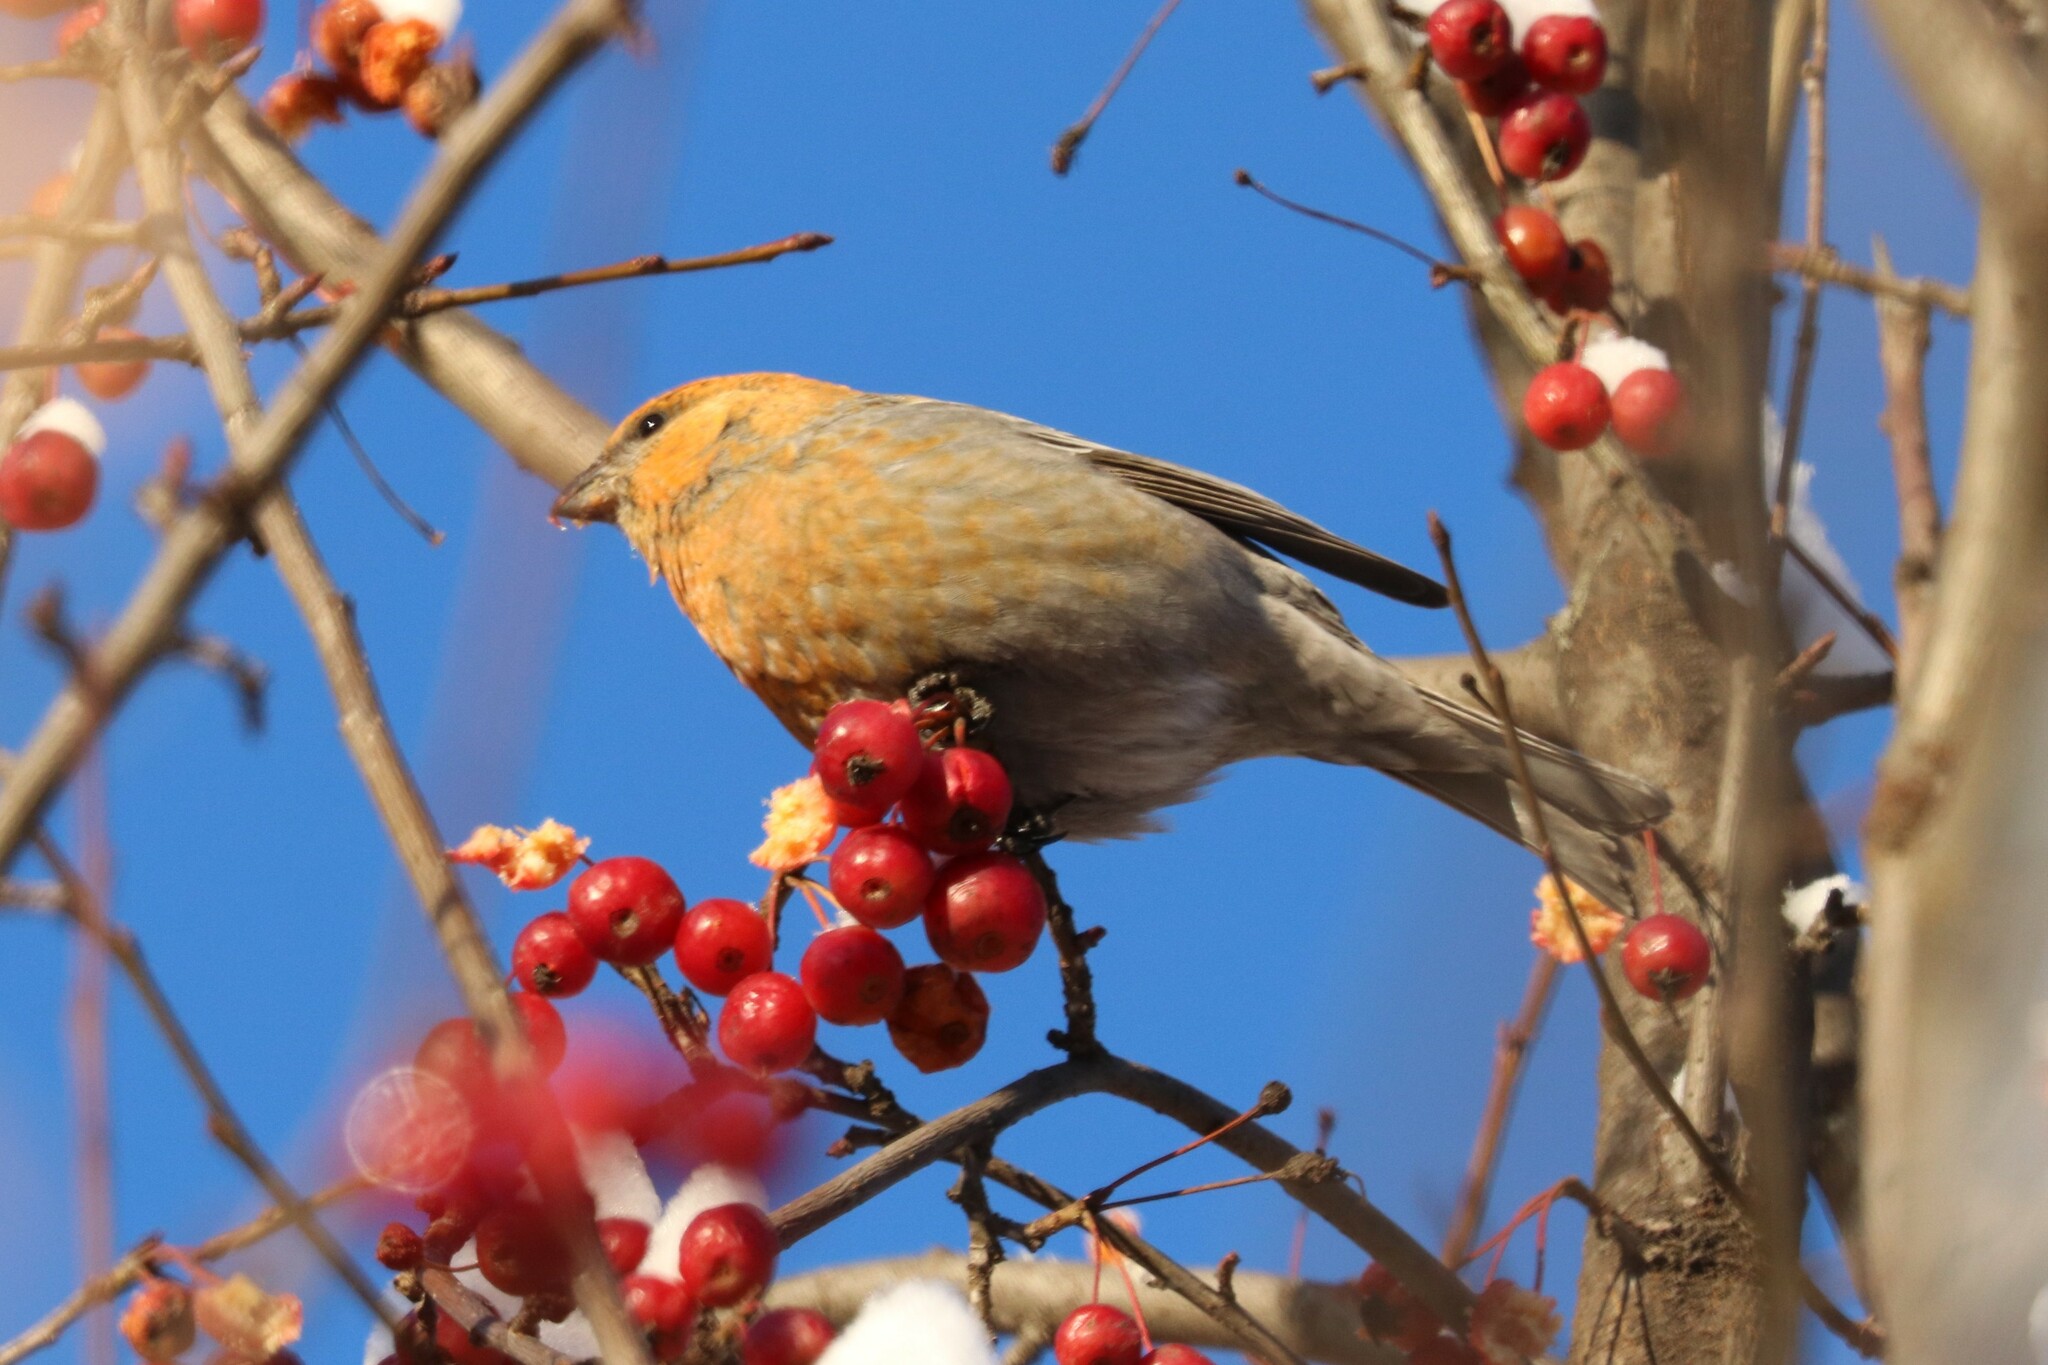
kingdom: Animalia
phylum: Chordata
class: Aves
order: Passeriformes
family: Fringillidae
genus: Pinicola
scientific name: Pinicola enucleator
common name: Pine grosbeak
